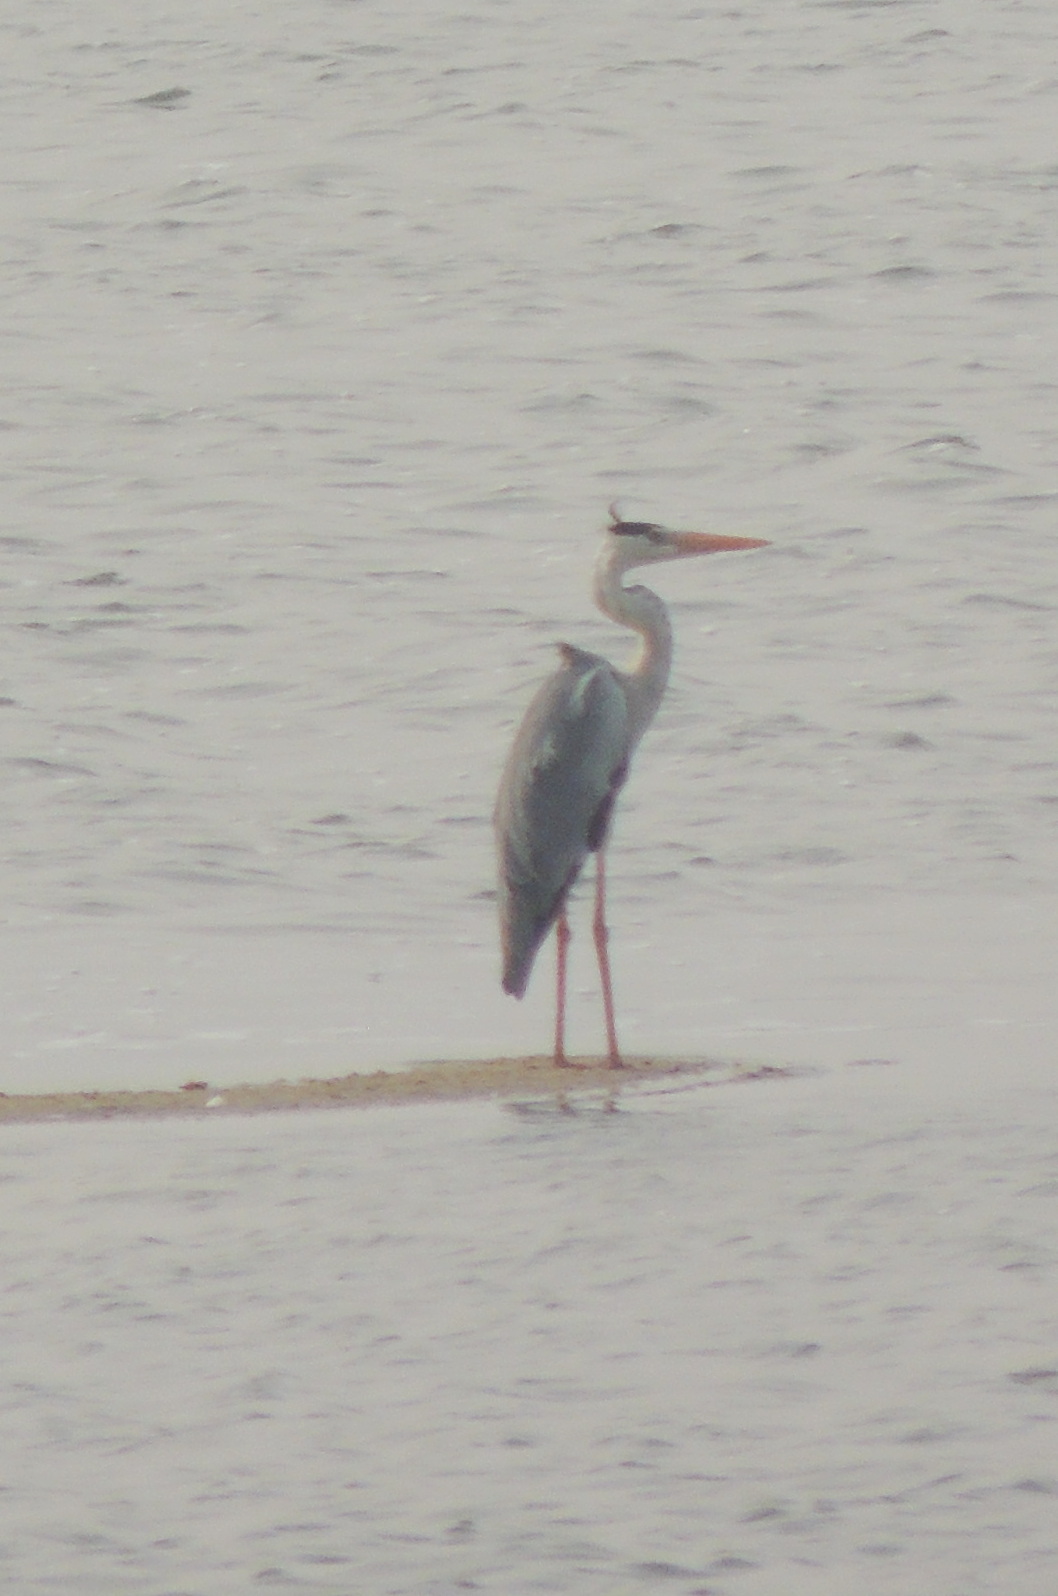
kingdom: Animalia
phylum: Chordata
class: Aves
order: Pelecaniformes
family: Ardeidae
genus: Ardea
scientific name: Ardea cinerea
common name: Grey heron
